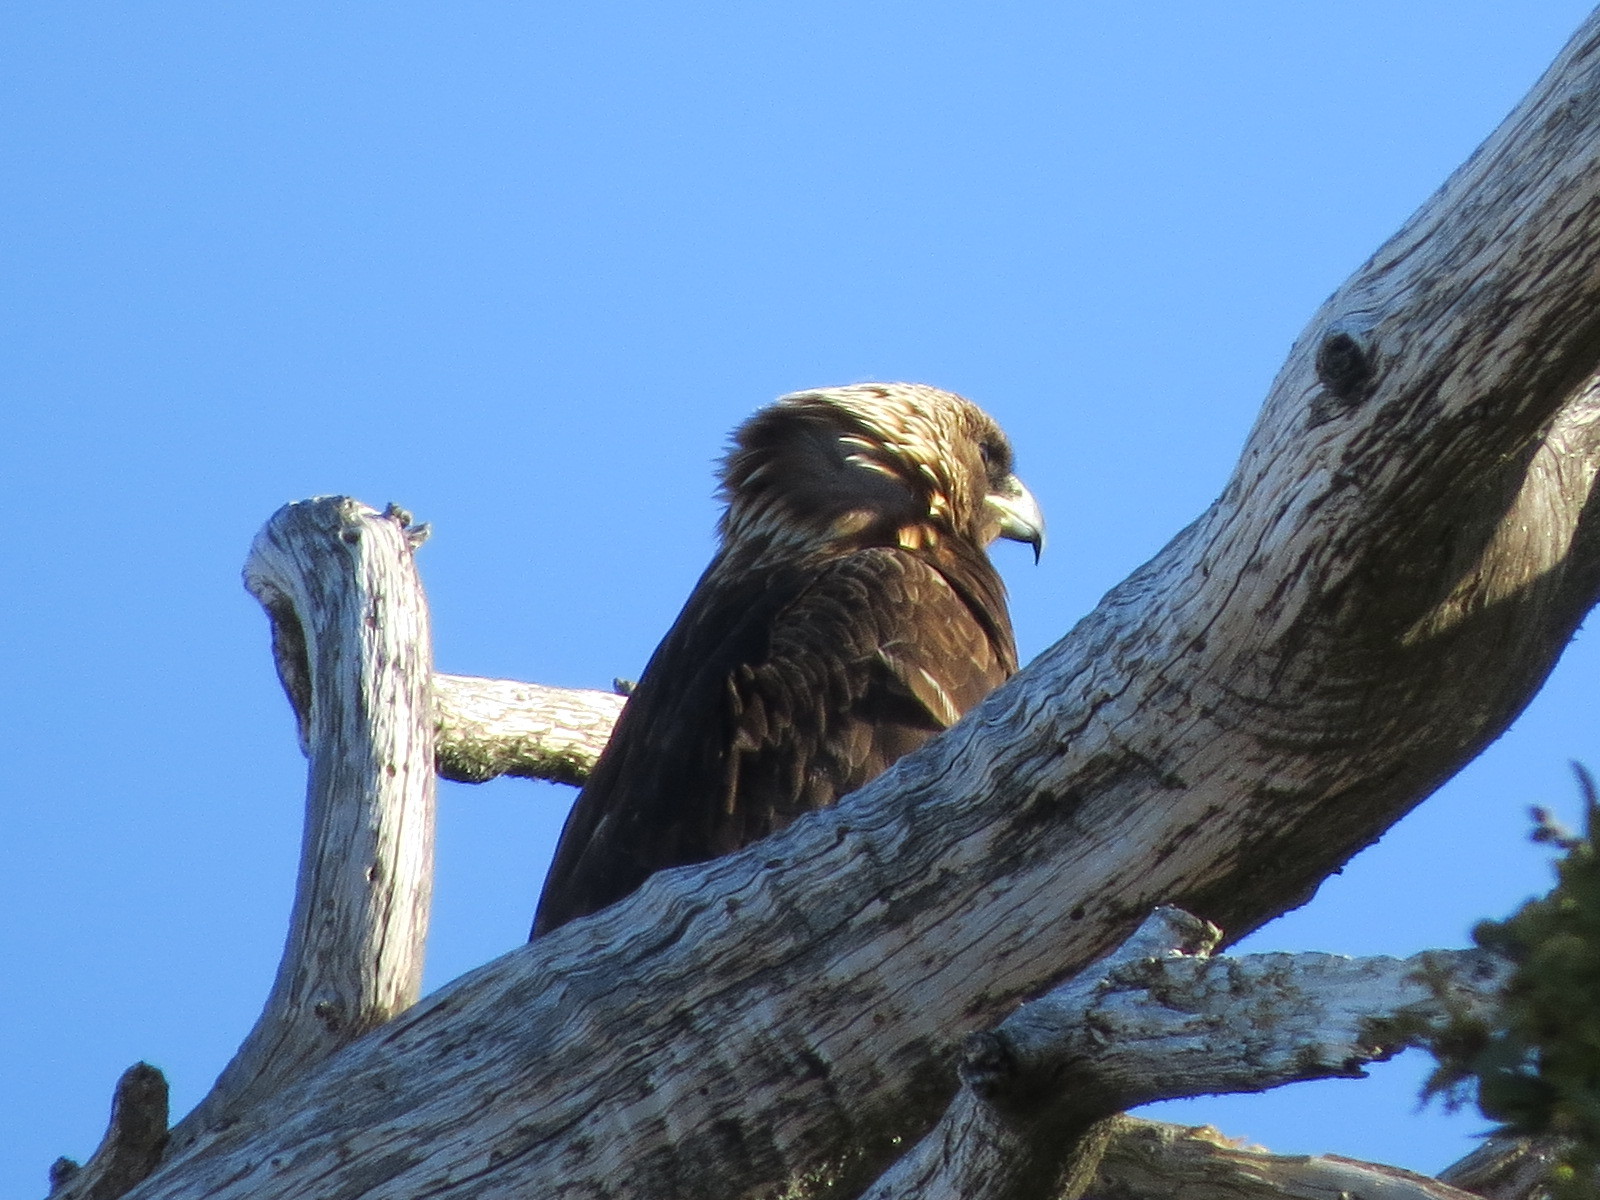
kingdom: Animalia
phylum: Chordata
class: Aves
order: Accipitriformes
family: Accipitridae
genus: Aquila
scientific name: Aquila chrysaetos
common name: Golden eagle
